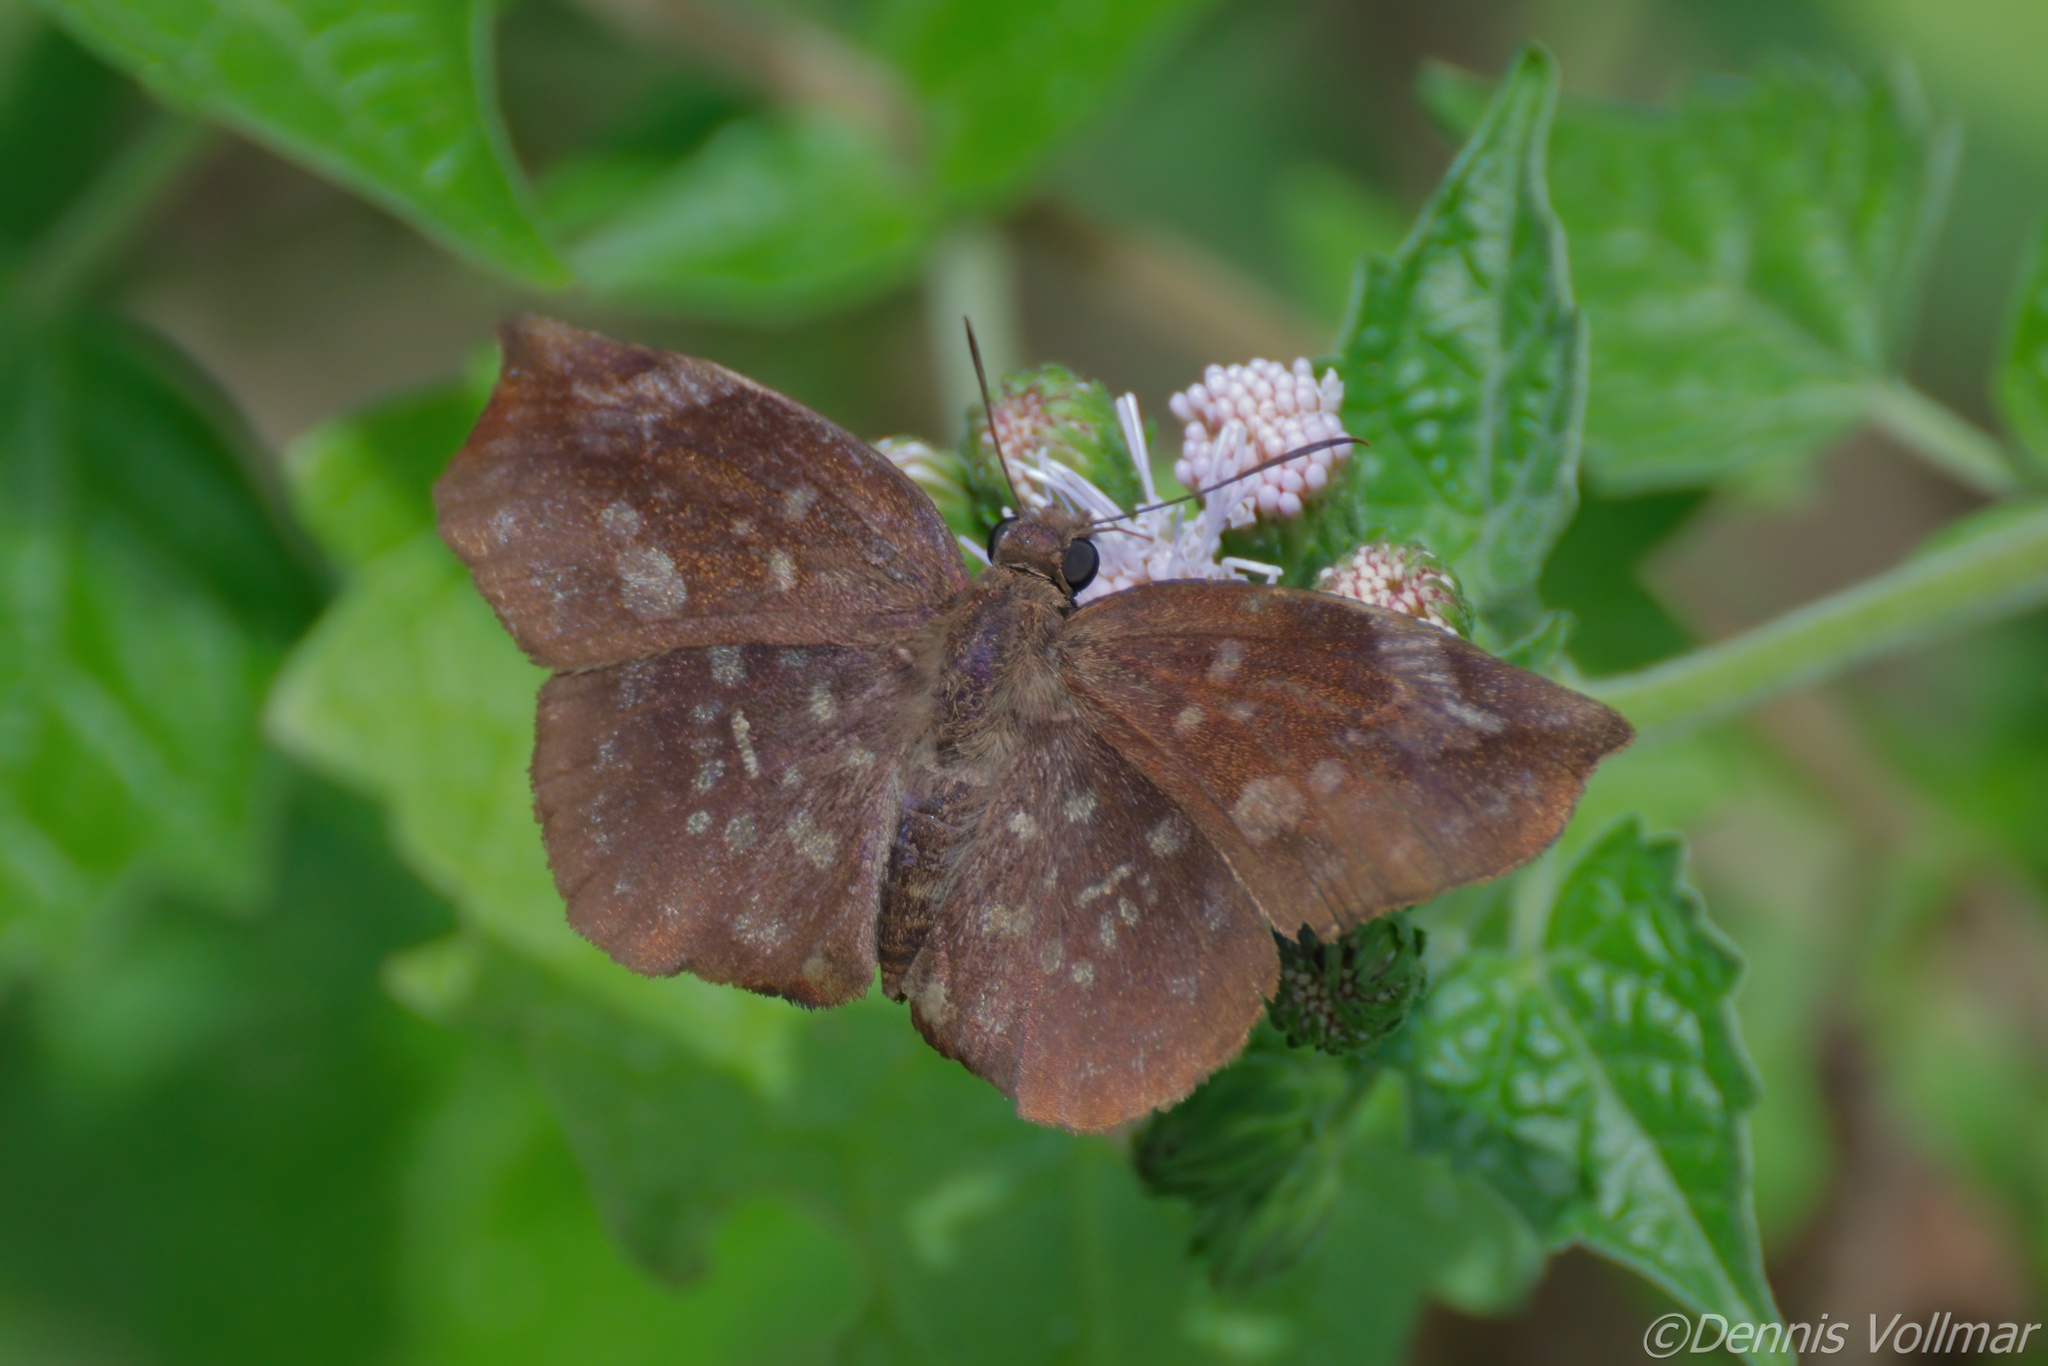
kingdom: Animalia
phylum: Arthropoda
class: Insecta
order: Lepidoptera
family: Hesperiidae
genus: Achlyodes
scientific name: Achlyodes thraso
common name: Sickle-winged skipper
